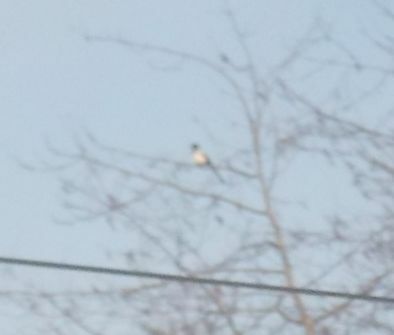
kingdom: Animalia
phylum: Chordata
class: Aves
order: Passeriformes
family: Corvidae
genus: Pica
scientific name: Pica pica
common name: Eurasian magpie
